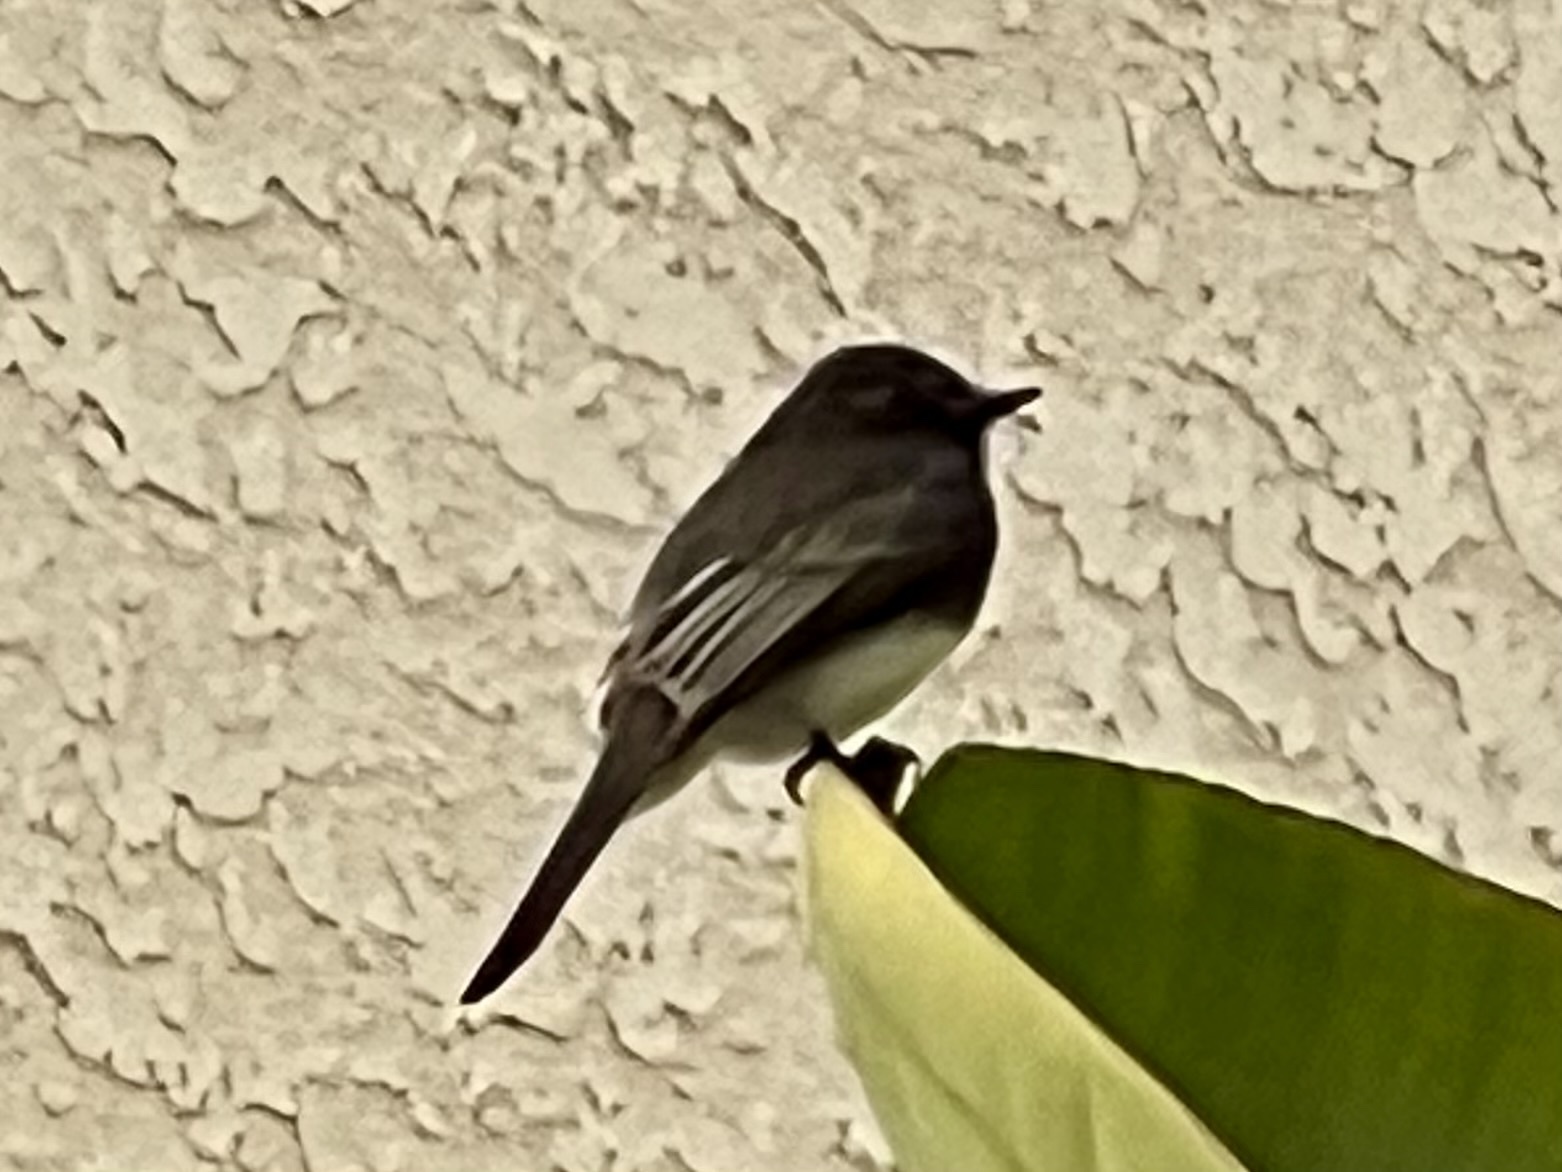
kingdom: Animalia
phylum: Chordata
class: Aves
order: Passeriformes
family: Tyrannidae
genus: Sayornis
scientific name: Sayornis nigricans
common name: Black phoebe
